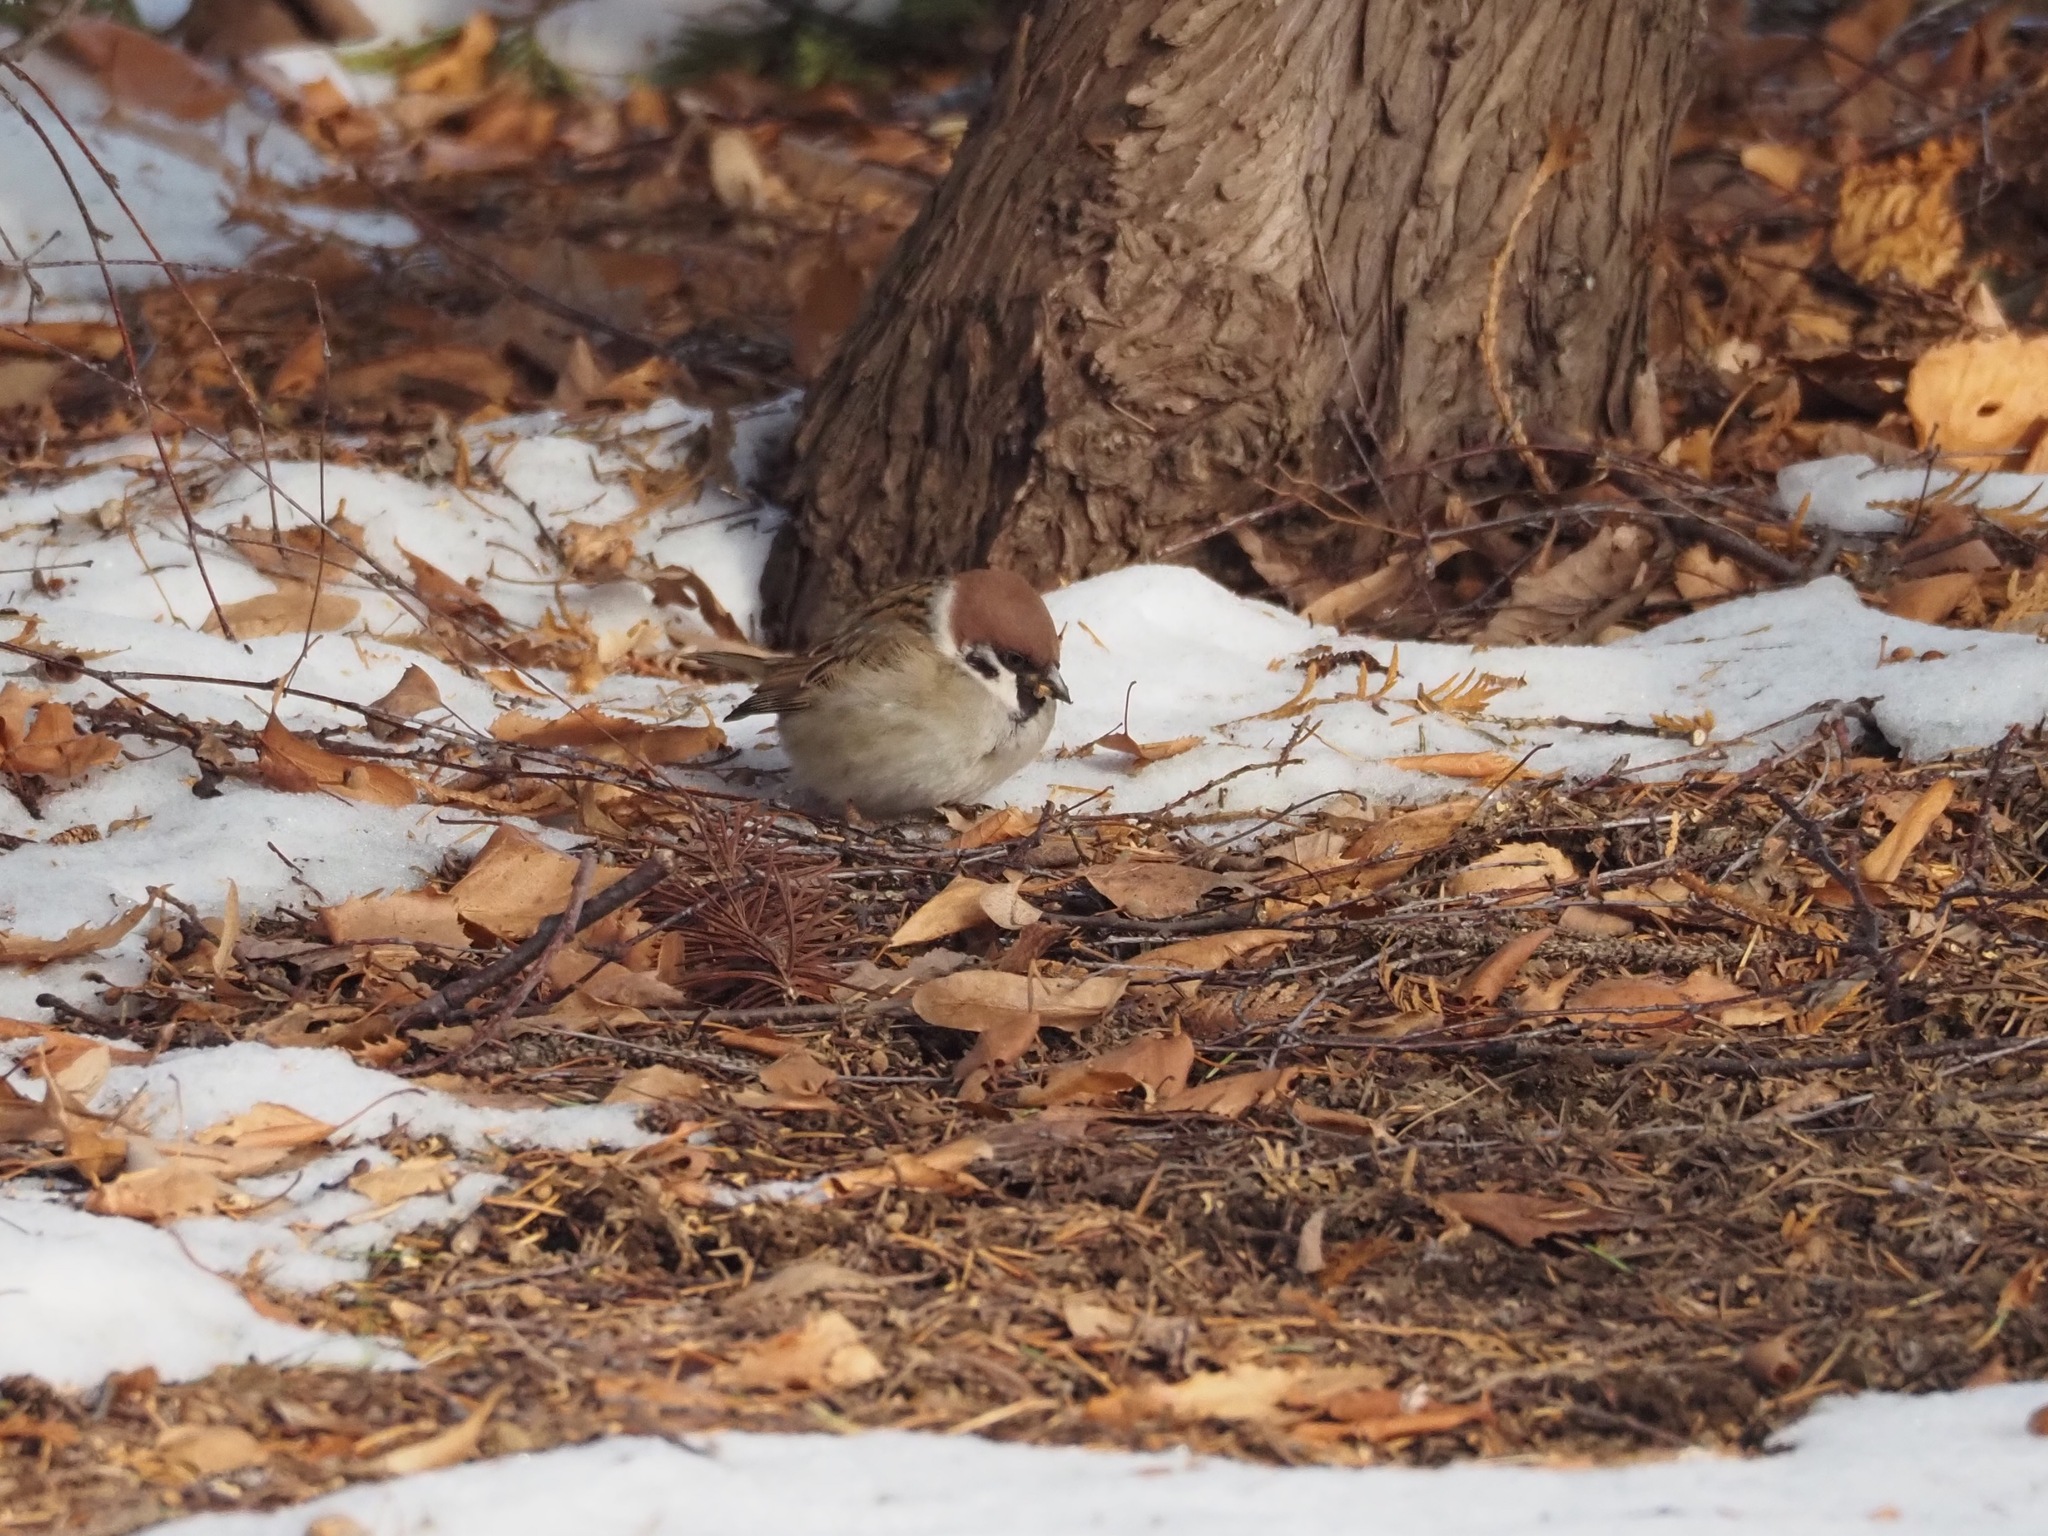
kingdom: Animalia
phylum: Chordata
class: Aves
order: Passeriformes
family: Passeridae
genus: Passer
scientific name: Passer montanus
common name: Eurasian tree sparrow
